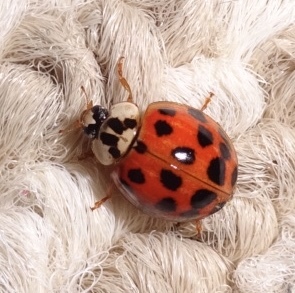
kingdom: Animalia
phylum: Arthropoda
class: Insecta
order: Coleoptera
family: Coccinellidae
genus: Harmonia
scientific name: Harmonia axyridis
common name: Harlequin ladybird
